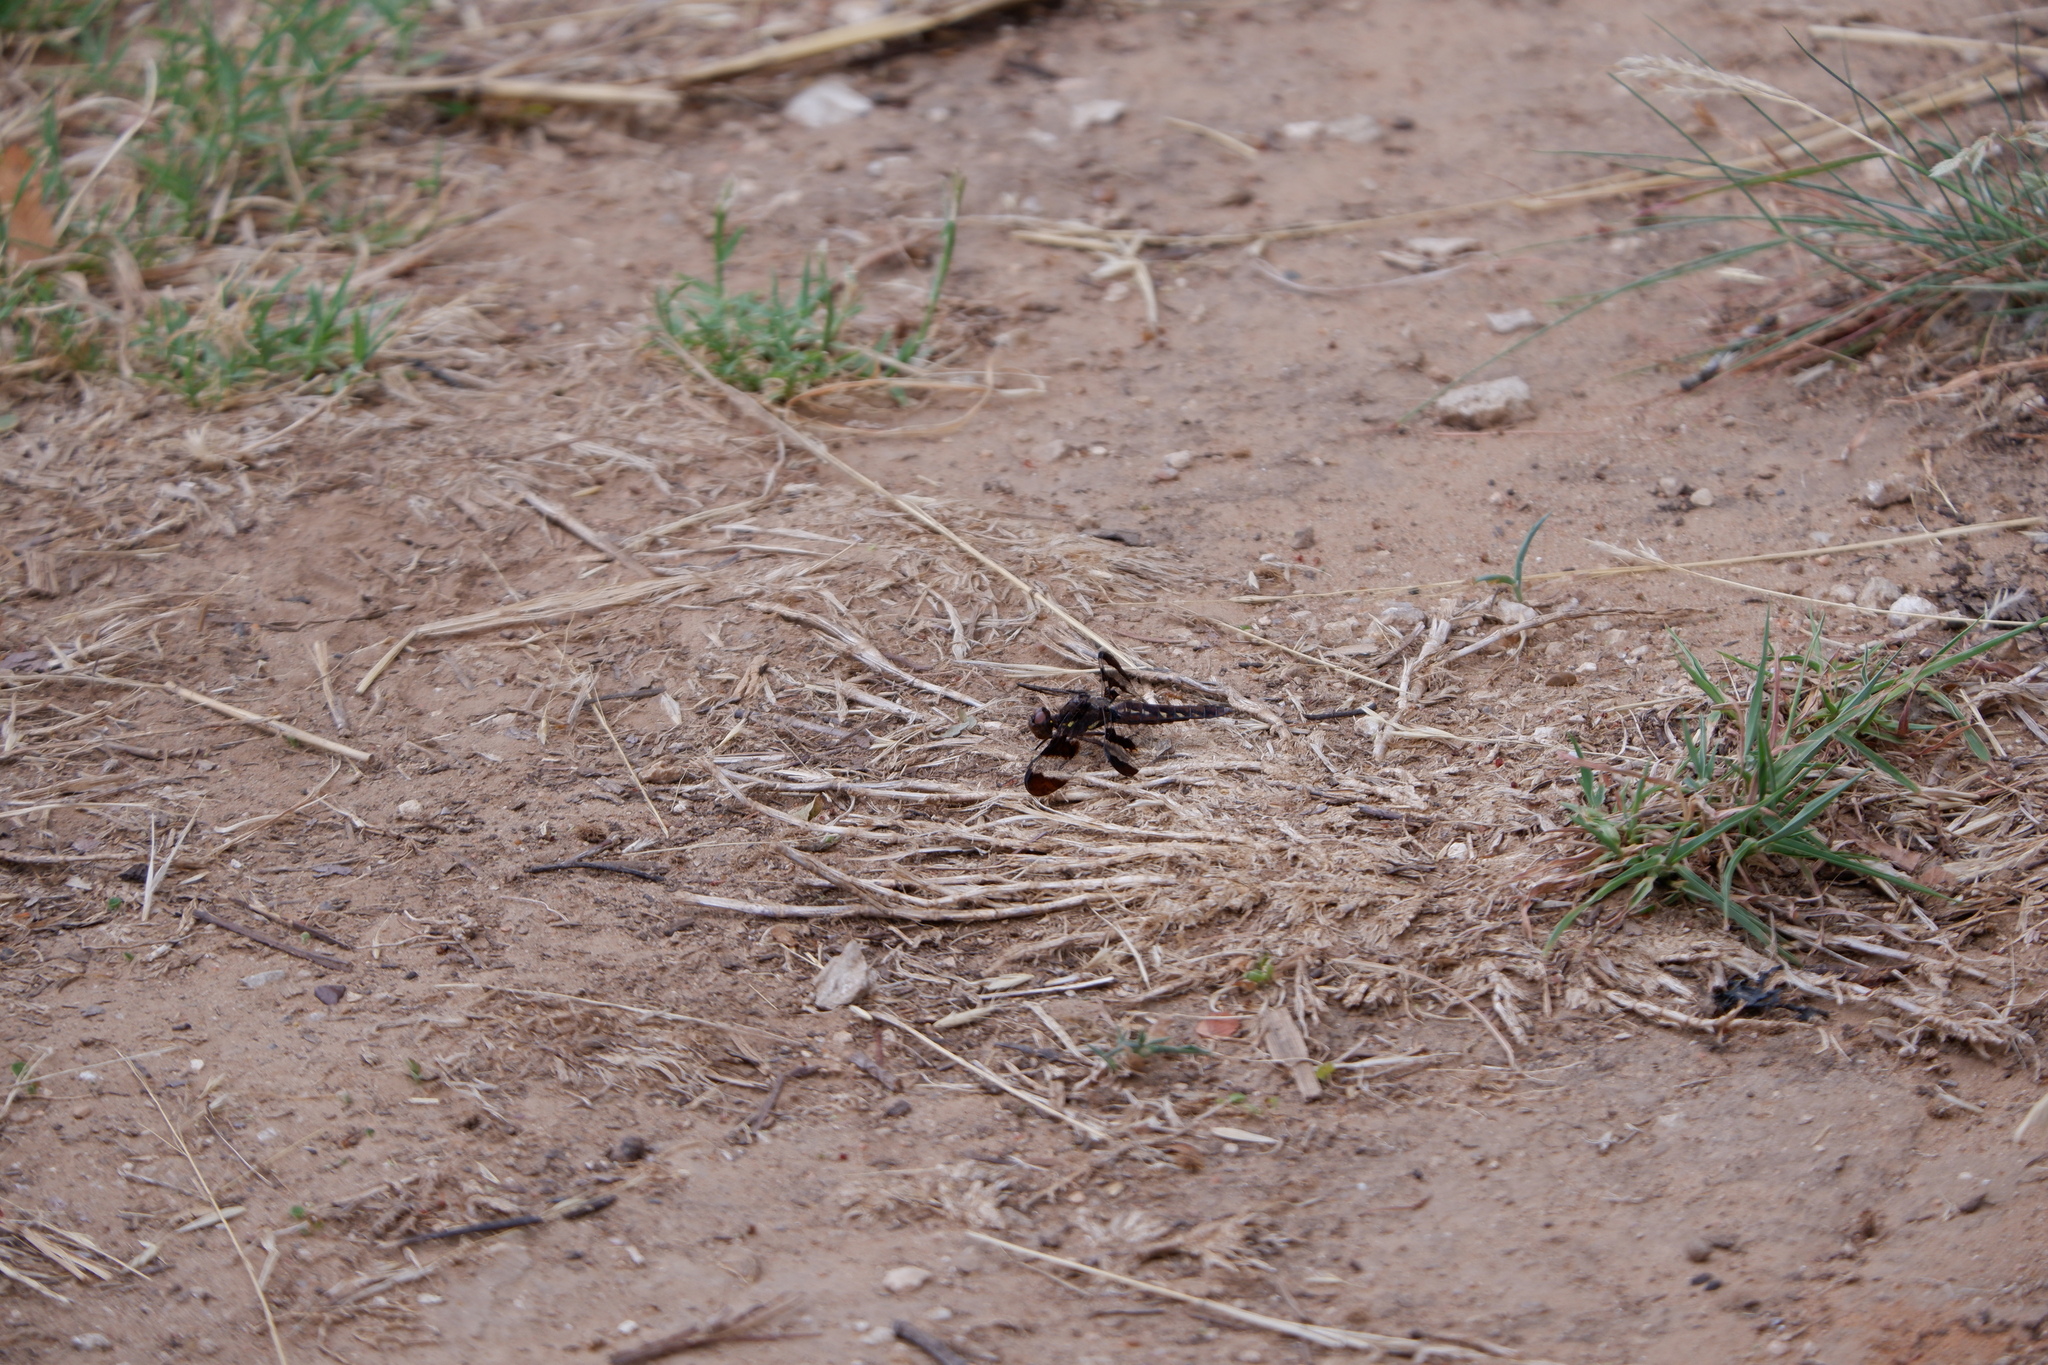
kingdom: Animalia
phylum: Arthropoda
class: Insecta
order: Odonata
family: Libellulidae
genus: Plathemis
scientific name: Plathemis lydia
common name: Common whitetail
